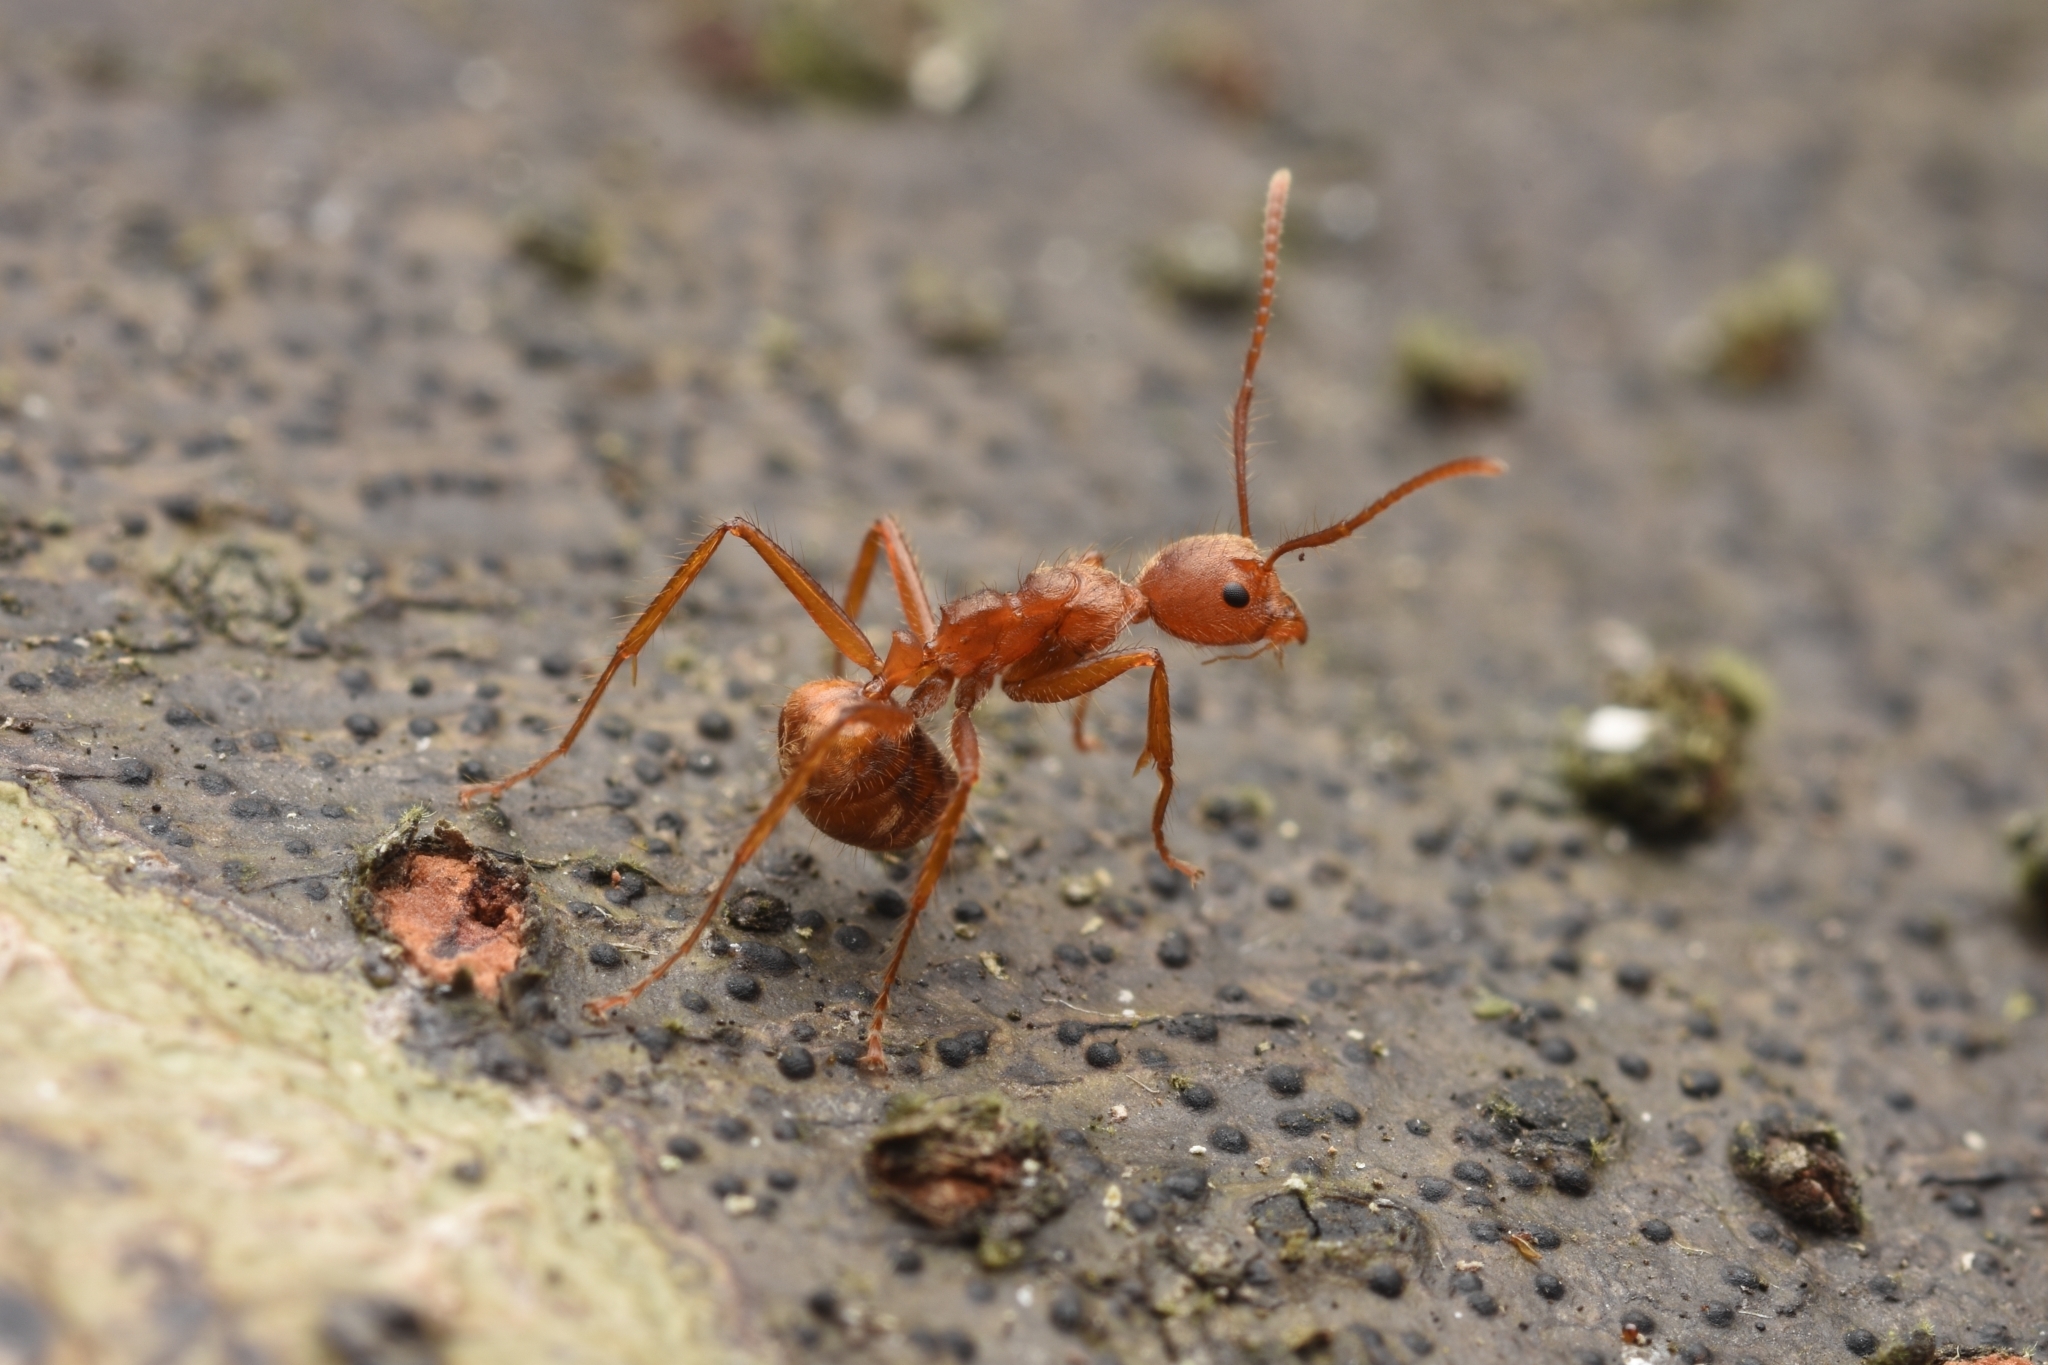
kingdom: Animalia
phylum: Arthropoda
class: Insecta
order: Hymenoptera
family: Formicidae
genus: Dolichoderus
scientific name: Dolichoderus ferrugineus
